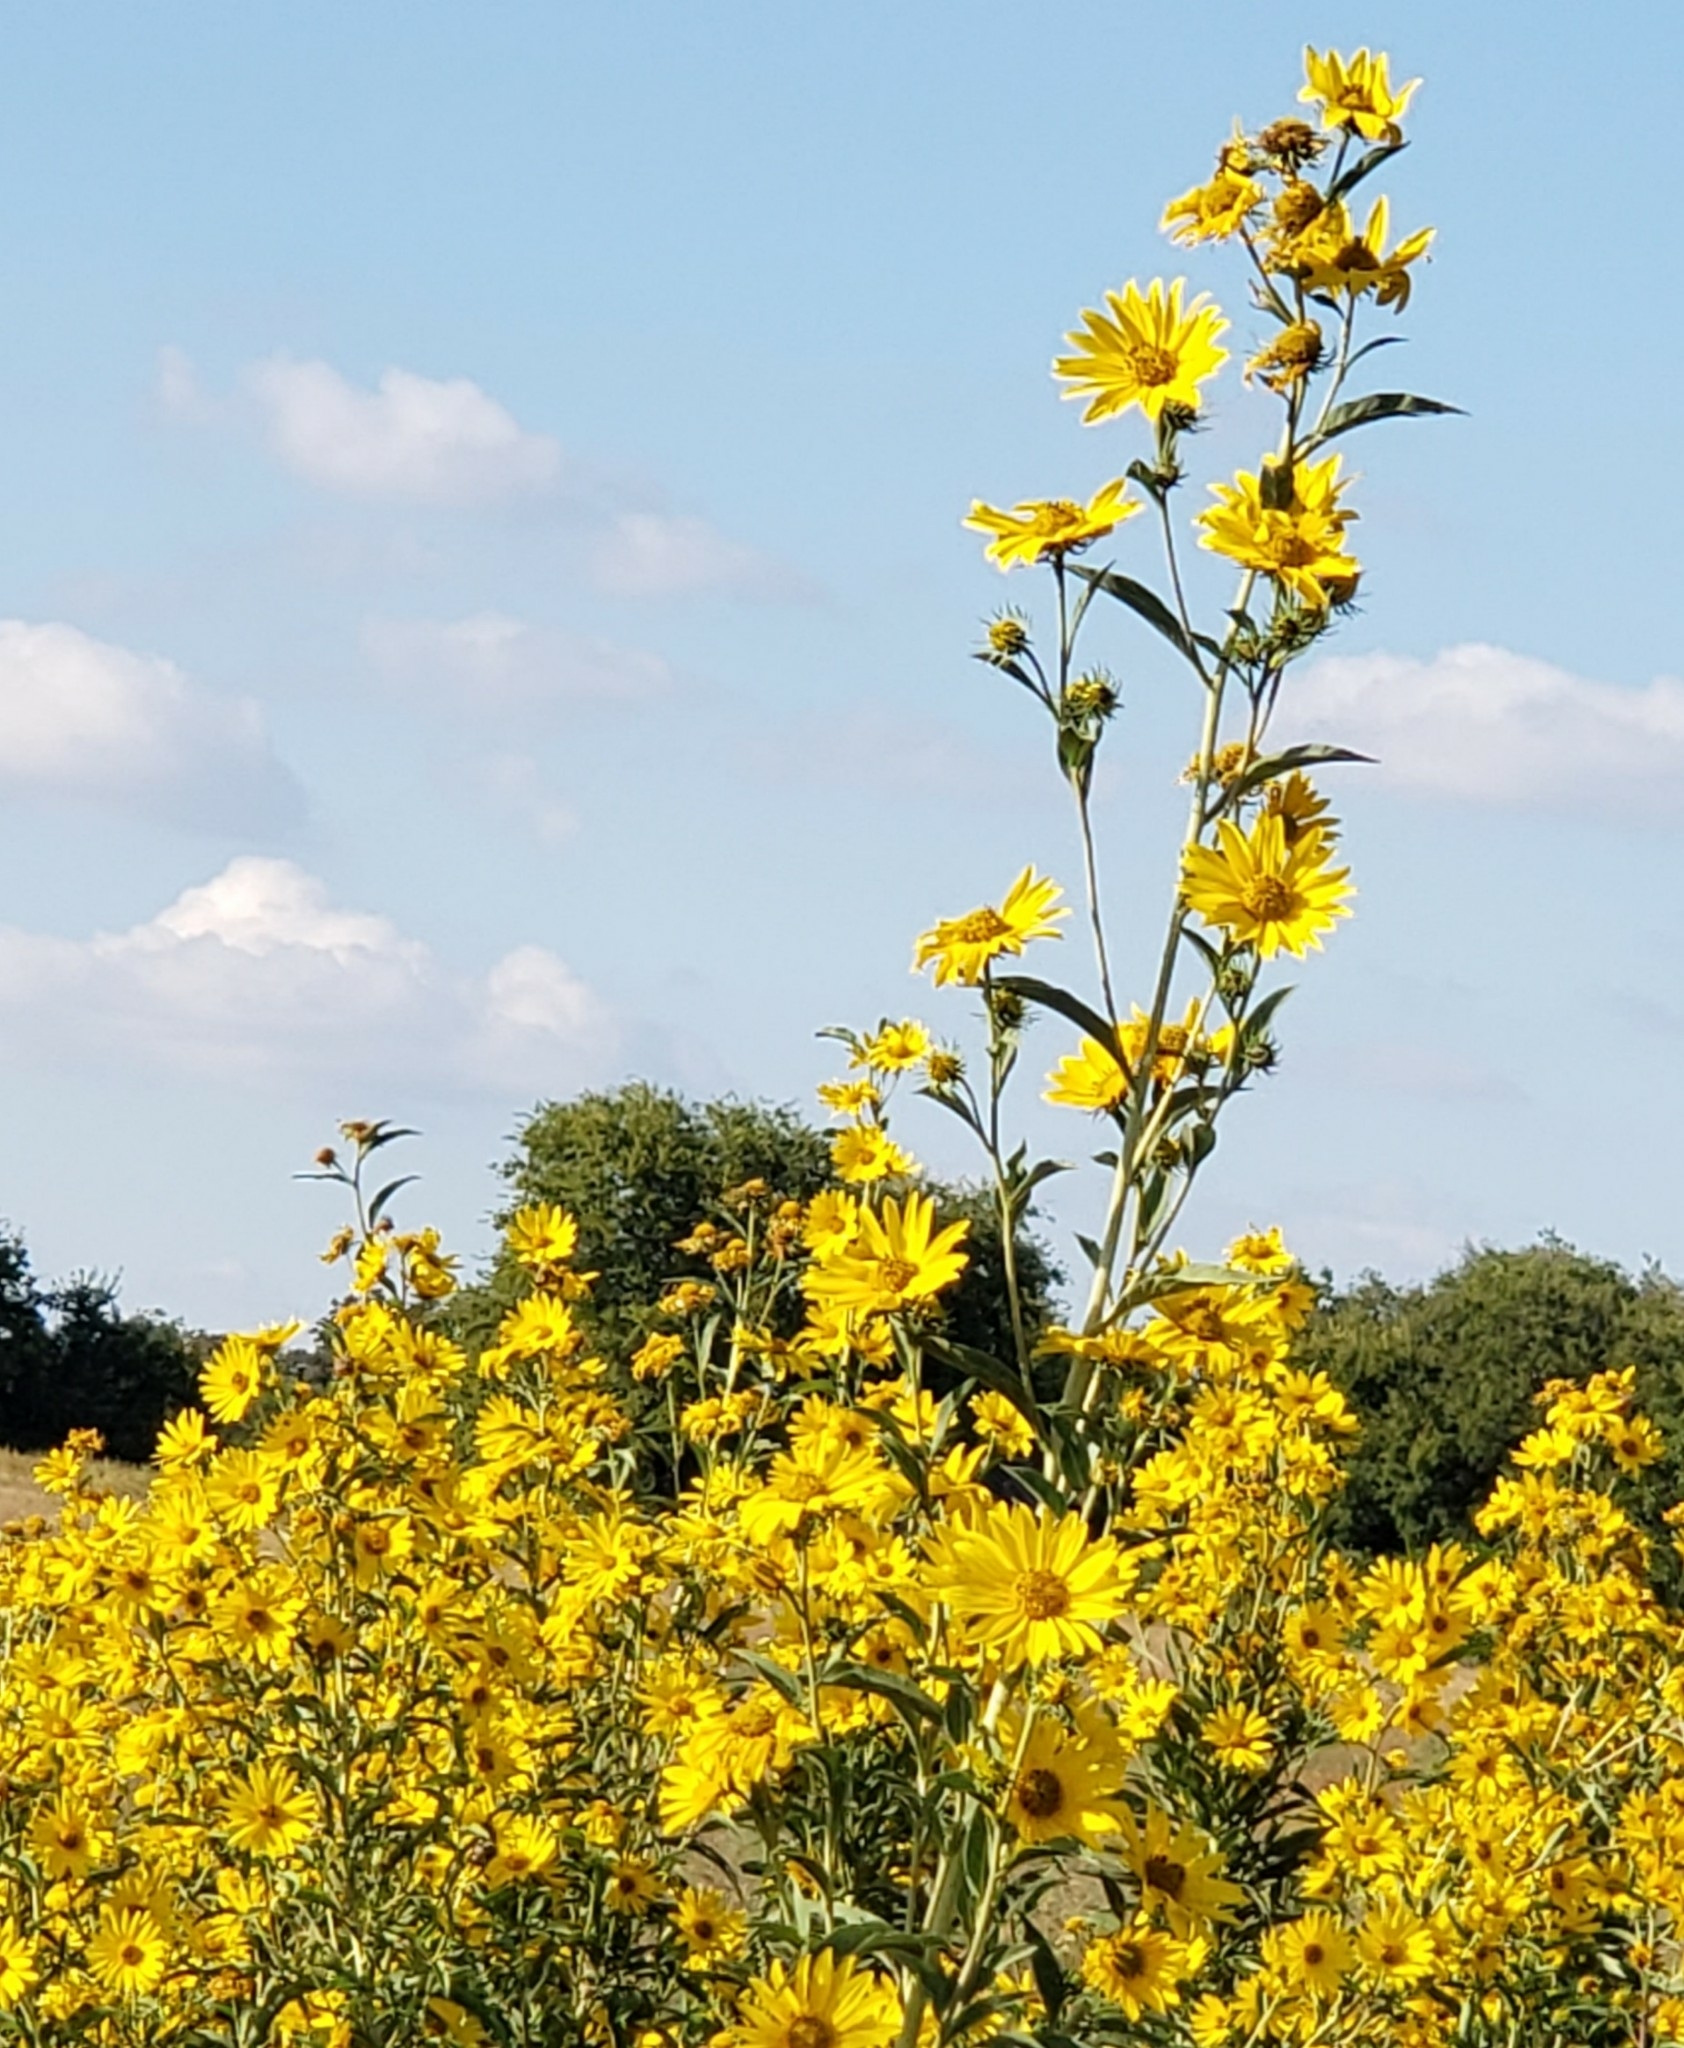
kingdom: Plantae
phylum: Tracheophyta
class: Magnoliopsida
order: Asterales
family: Asteraceae
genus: Helianthus
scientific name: Helianthus maximiliani
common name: Maximilian's sunflower
